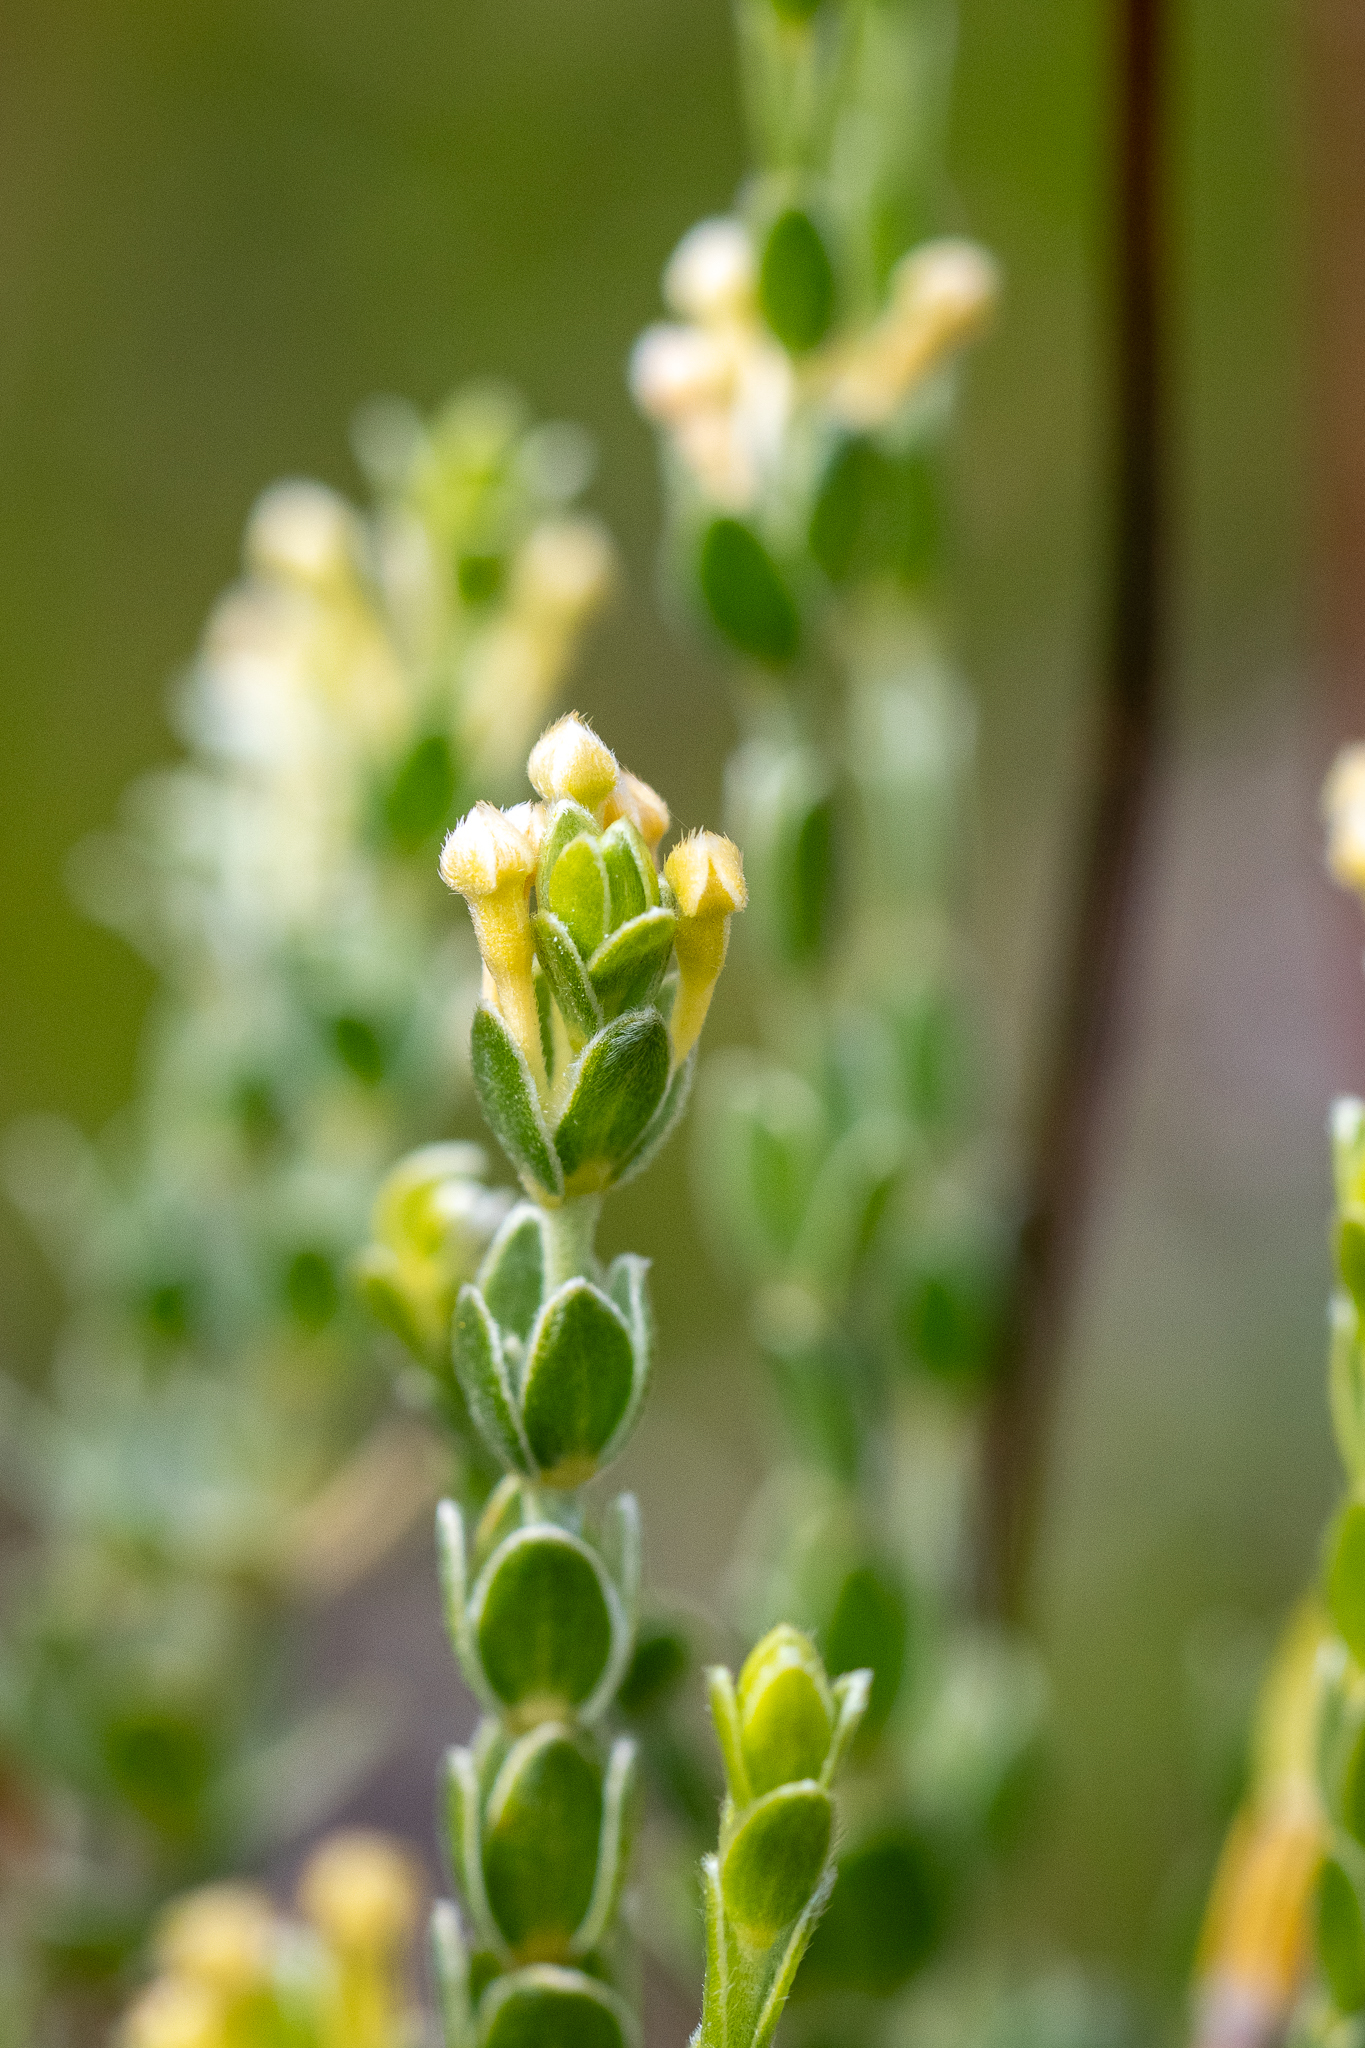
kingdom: Plantae
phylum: Tracheophyta
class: Magnoliopsida
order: Malvales
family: Thymelaeaceae
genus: Gnidia
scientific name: Gnidia anomala
